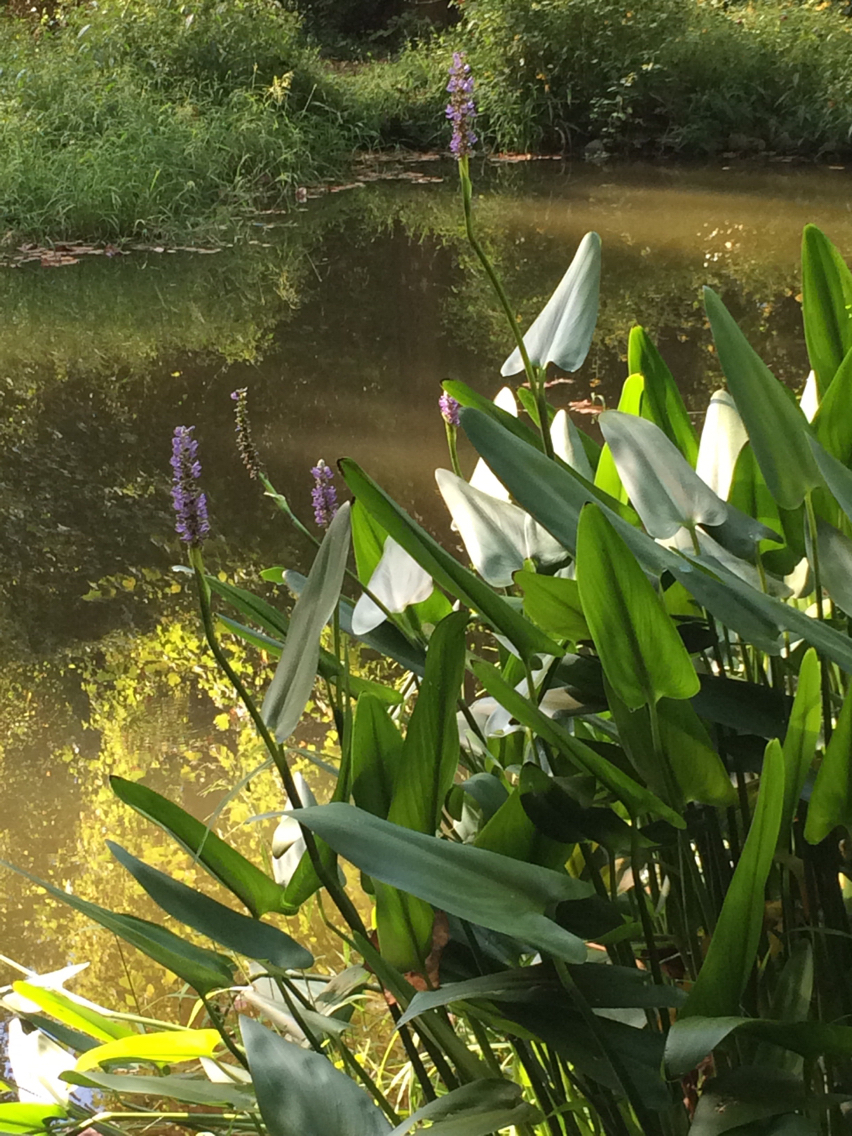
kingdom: Plantae
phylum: Tracheophyta
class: Liliopsida
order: Commelinales
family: Pontederiaceae
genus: Pontederia
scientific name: Pontederia cordata
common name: Pickerelweed
